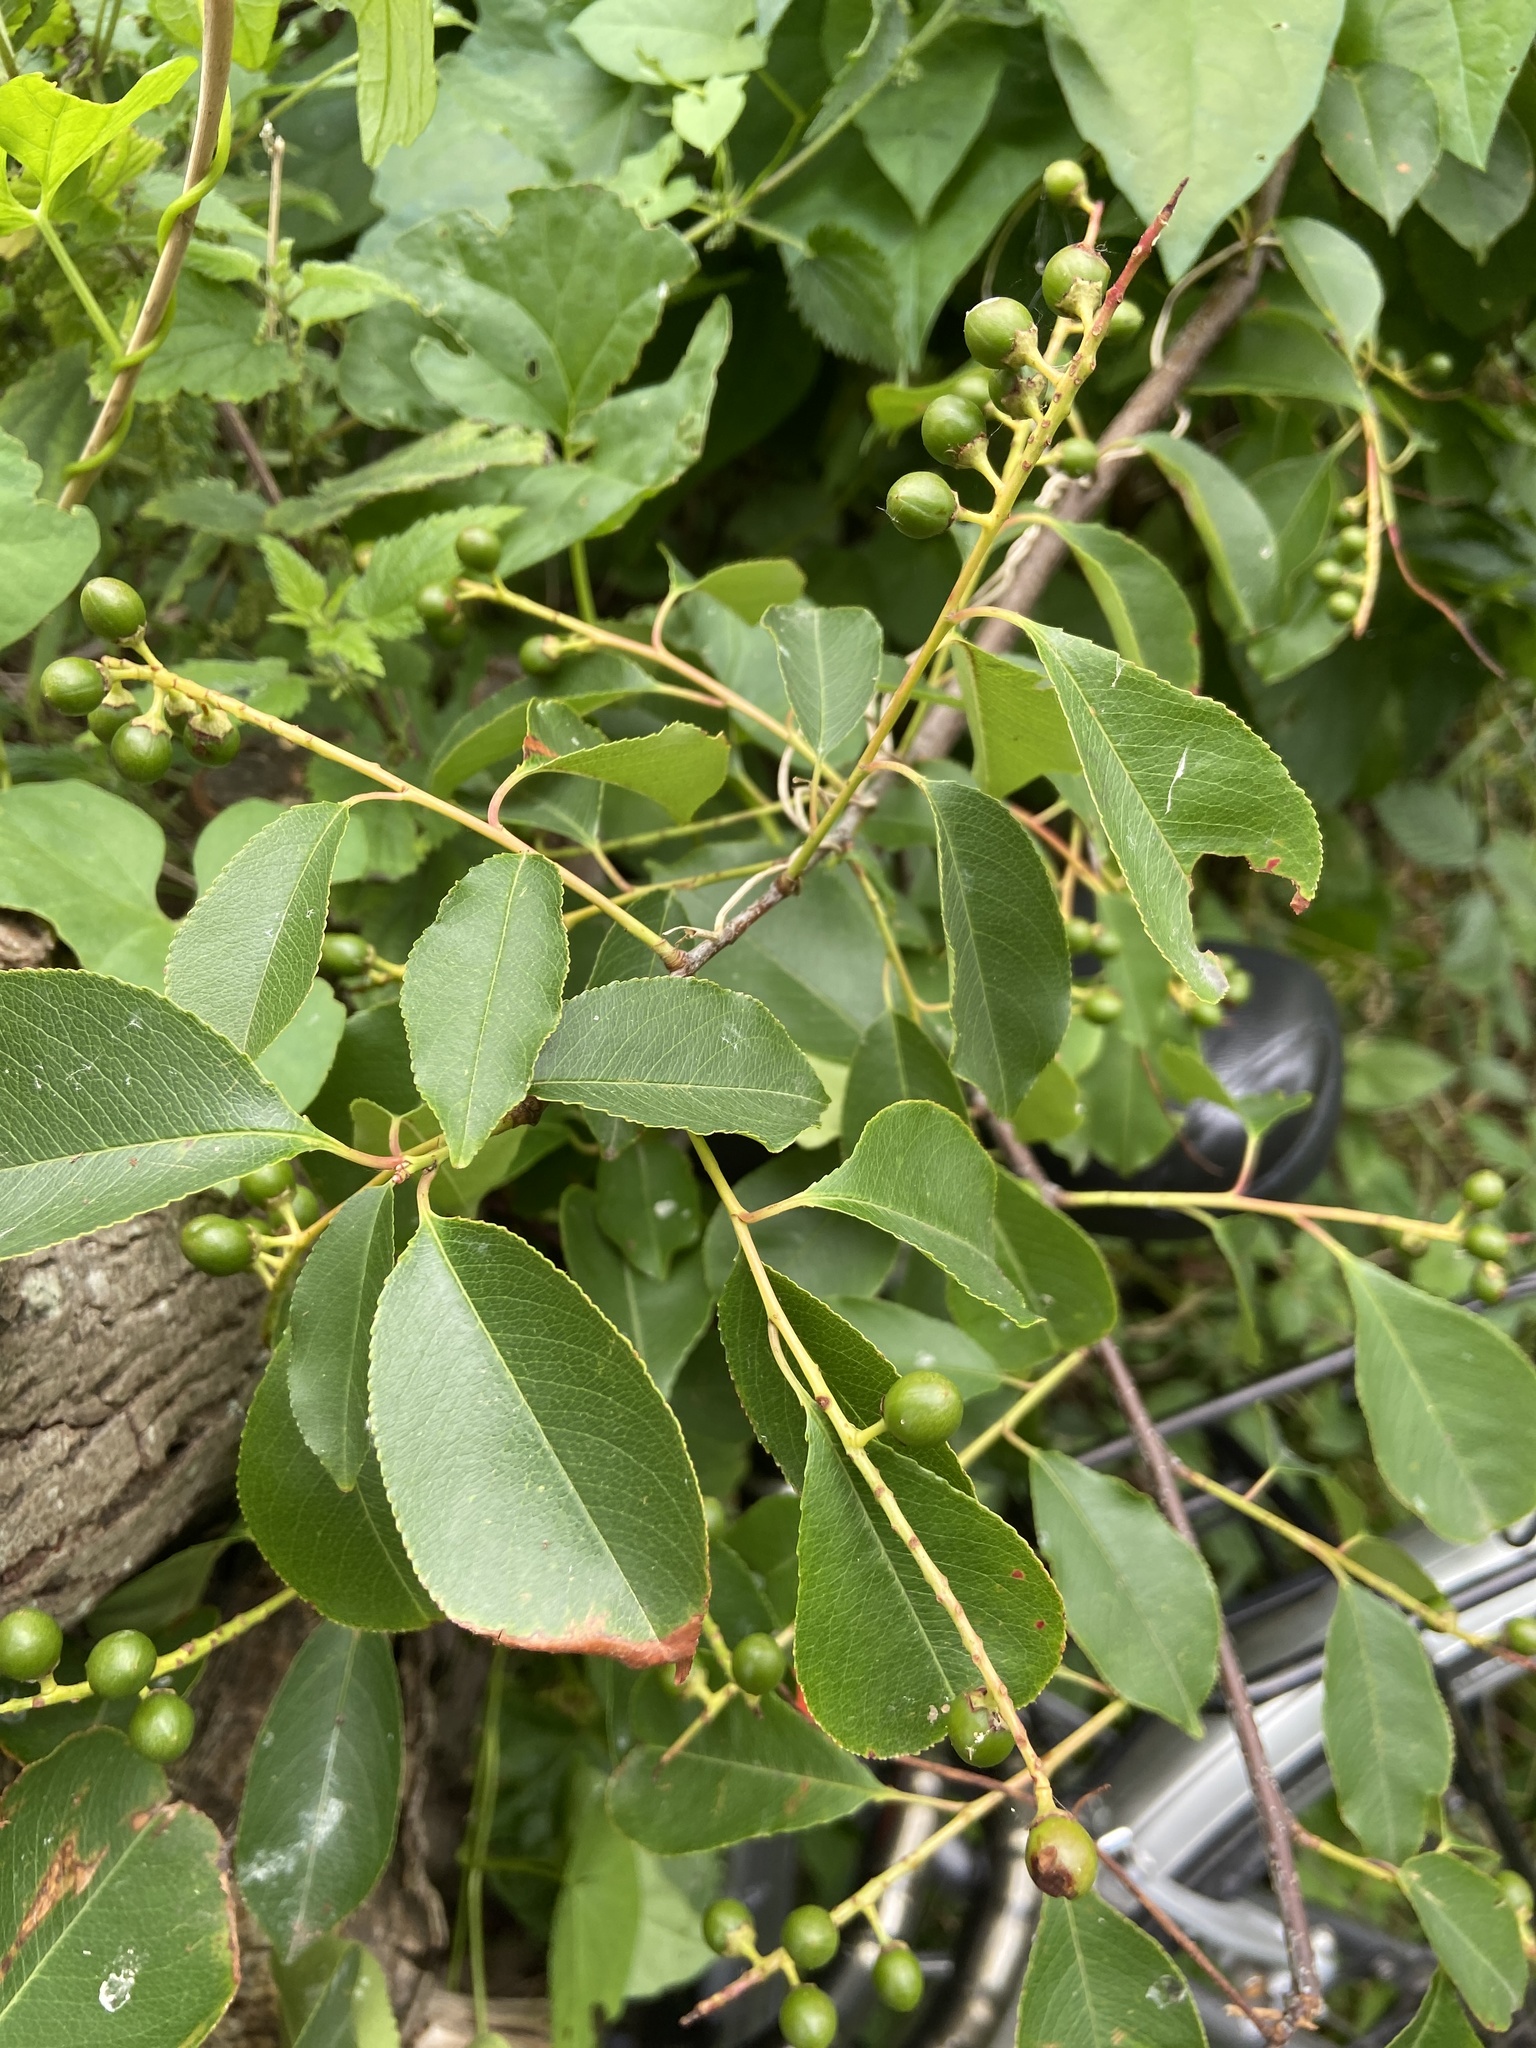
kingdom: Plantae
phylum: Tracheophyta
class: Magnoliopsida
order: Rosales
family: Rosaceae
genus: Prunus
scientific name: Prunus serotina
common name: Black cherry
